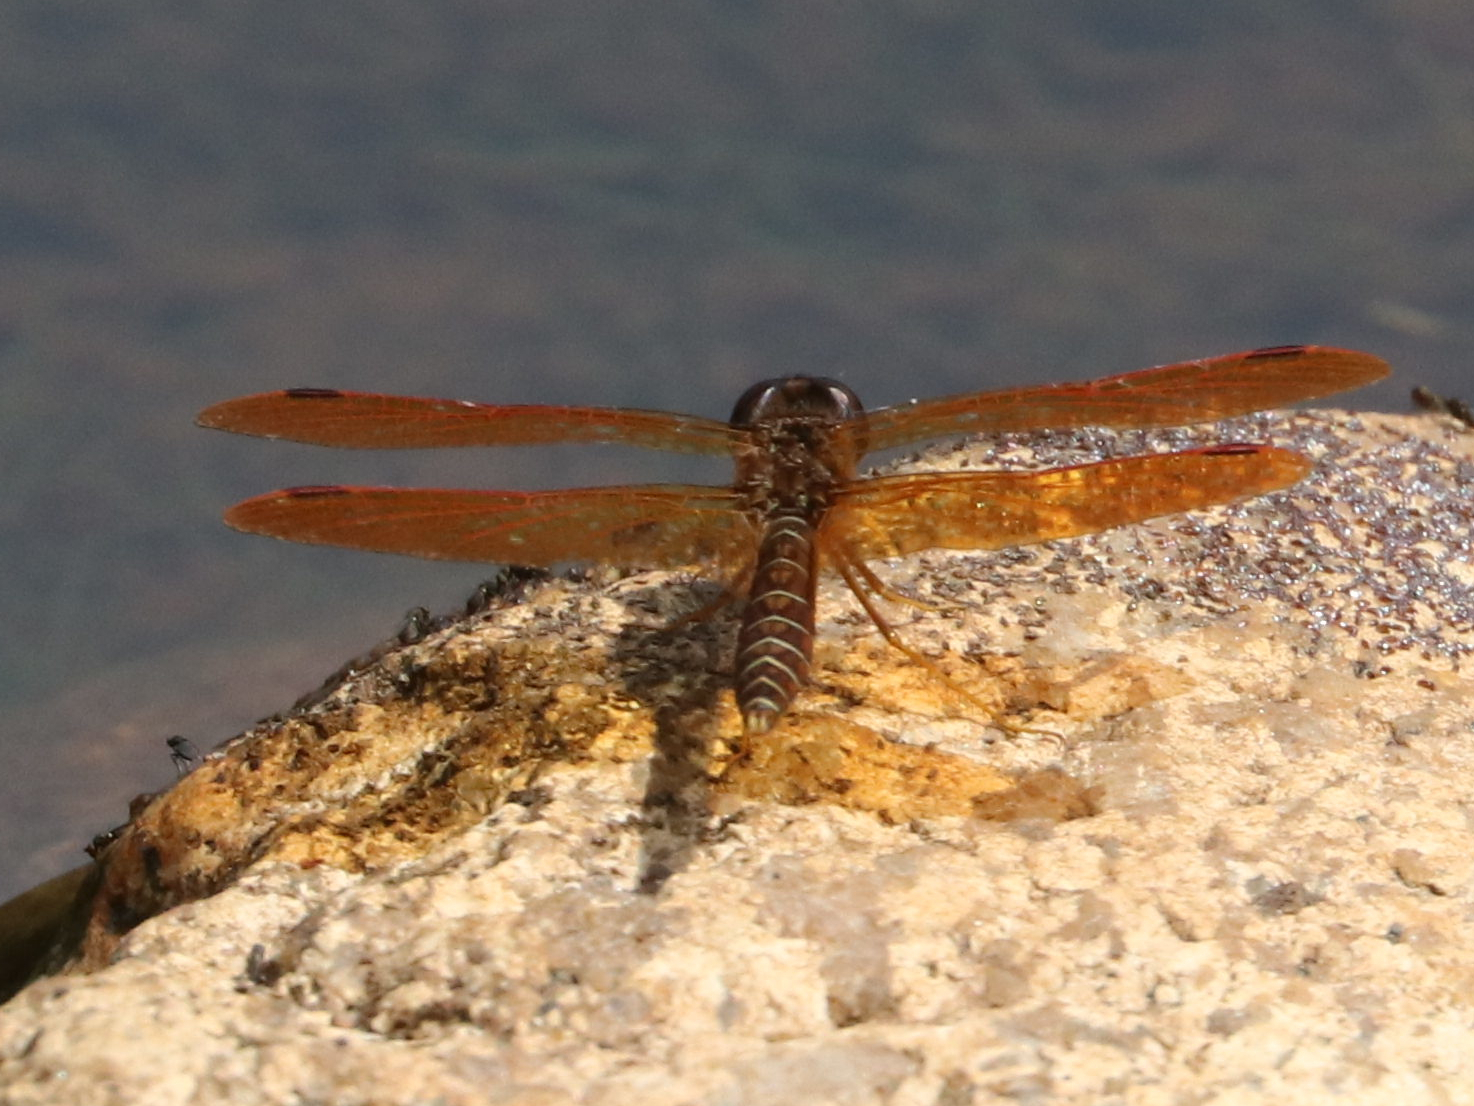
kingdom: Animalia
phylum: Arthropoda
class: Insecta
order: Odonata
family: Libellulidae
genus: Perithemis
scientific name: Perithemis tenera
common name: Eastern amberwing
